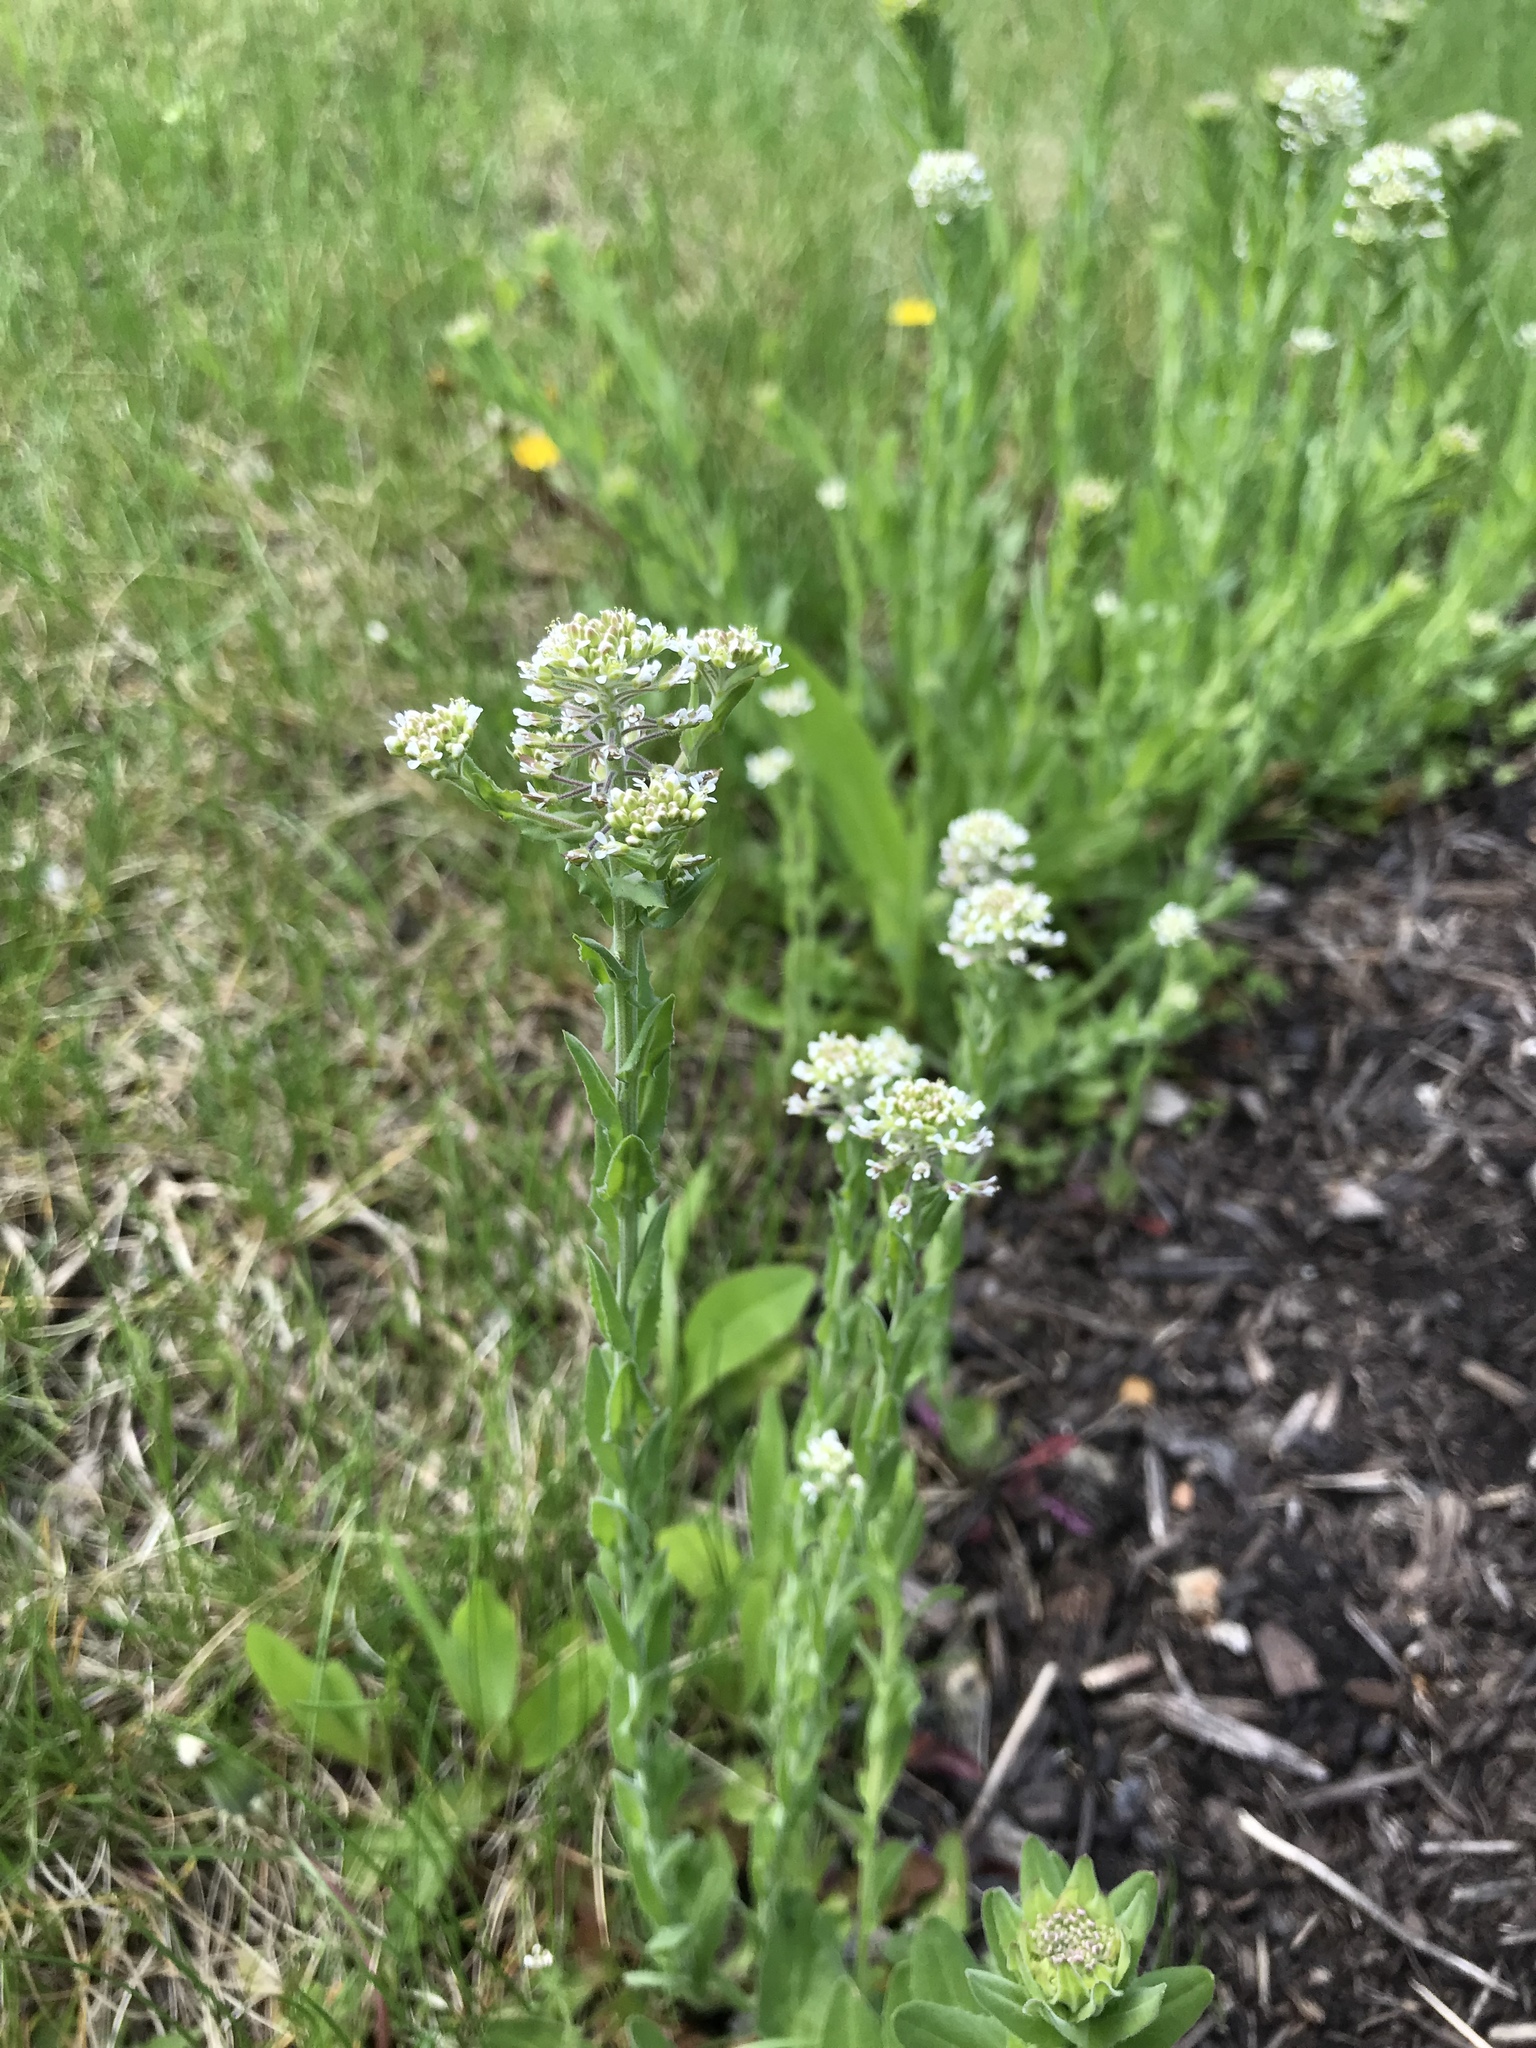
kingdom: Plantae
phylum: Tracheophyta
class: Magnoliopsida
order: Brassicales
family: Brassicaceae
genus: Lepidium
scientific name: Lepidium campestre
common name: Field pepperwort
